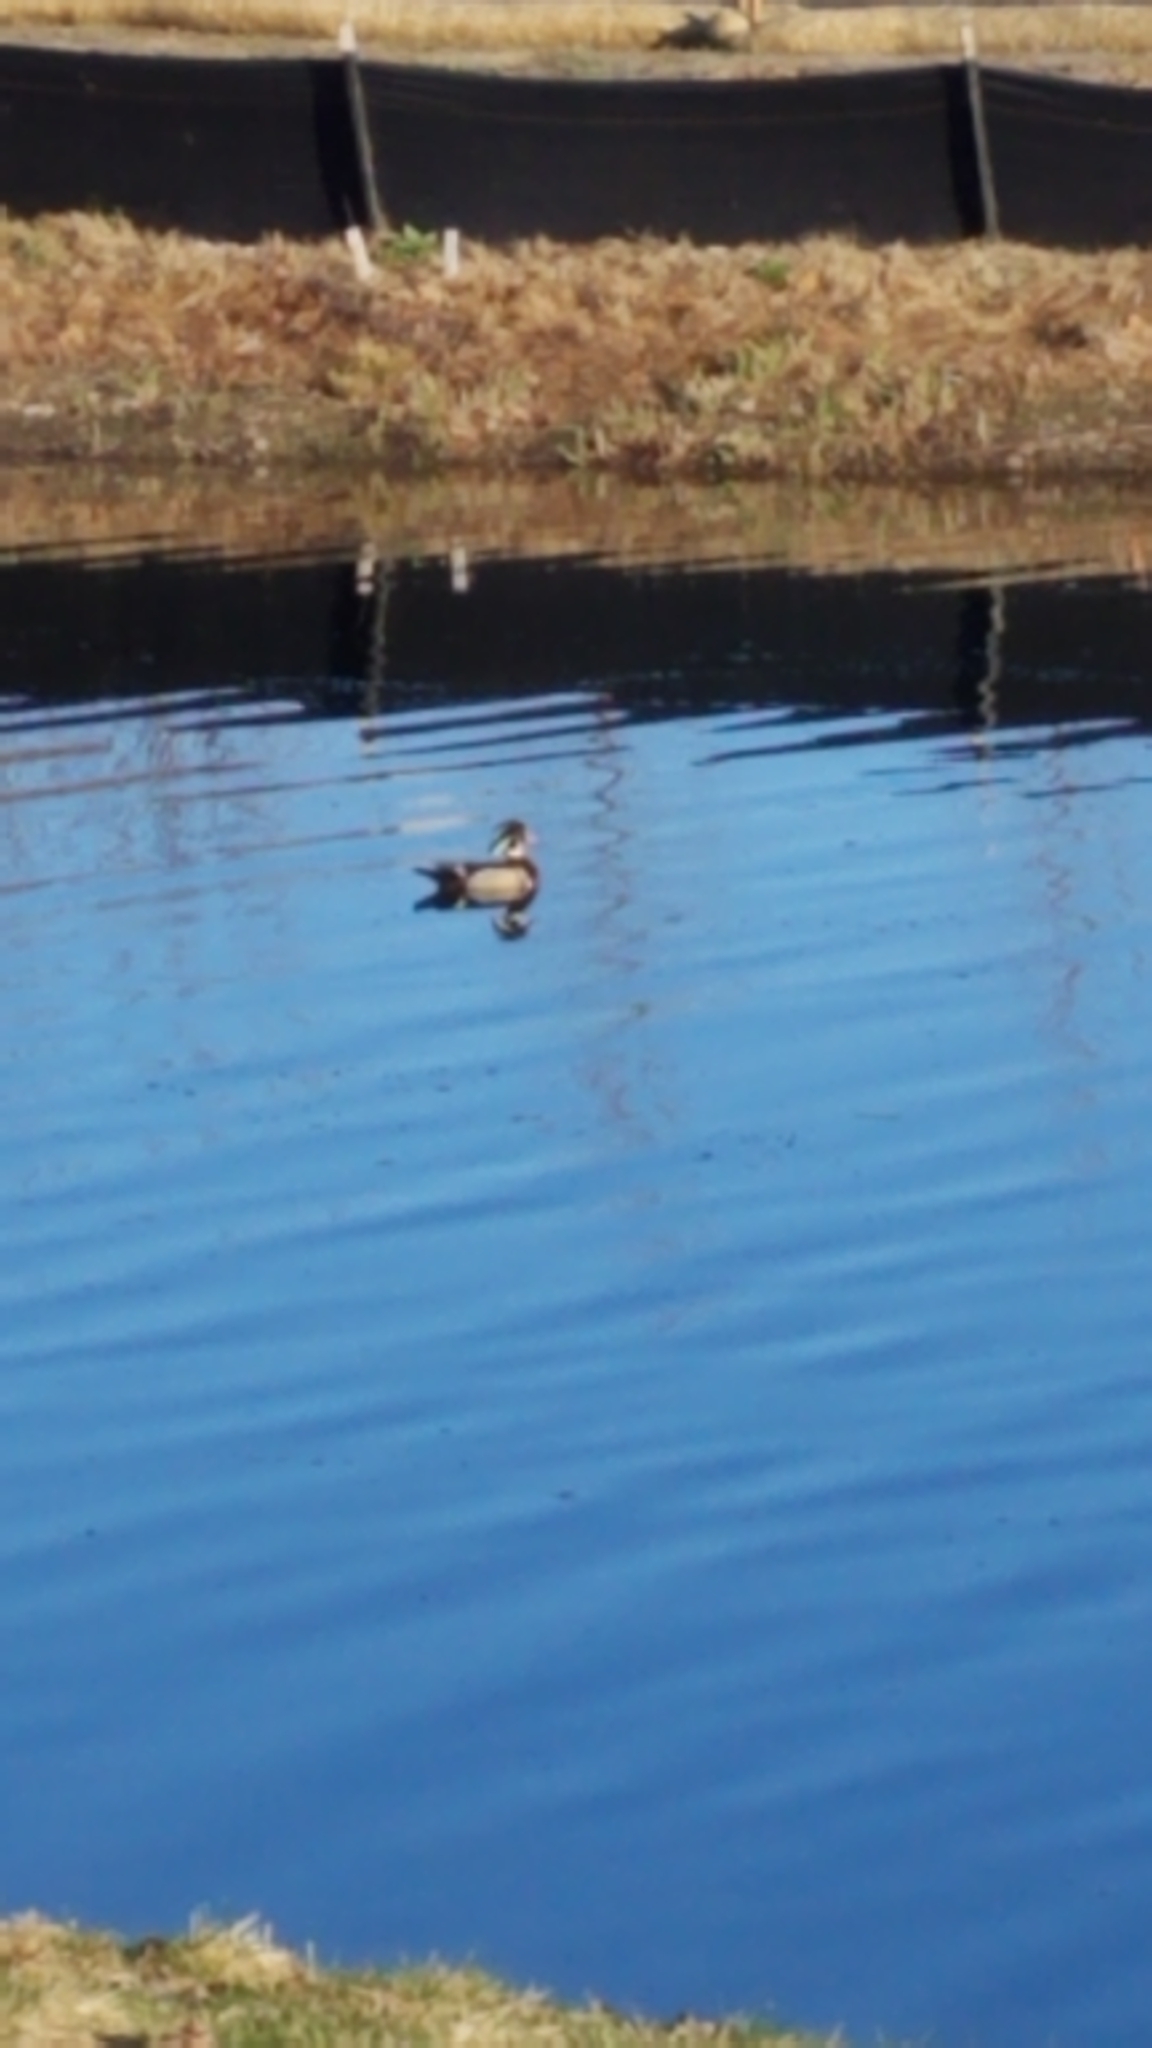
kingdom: Animalia
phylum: Chordata
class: Aves
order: Anseriformes
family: Anatidae
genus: Aix
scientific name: Aix sponsa
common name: Wood duck
